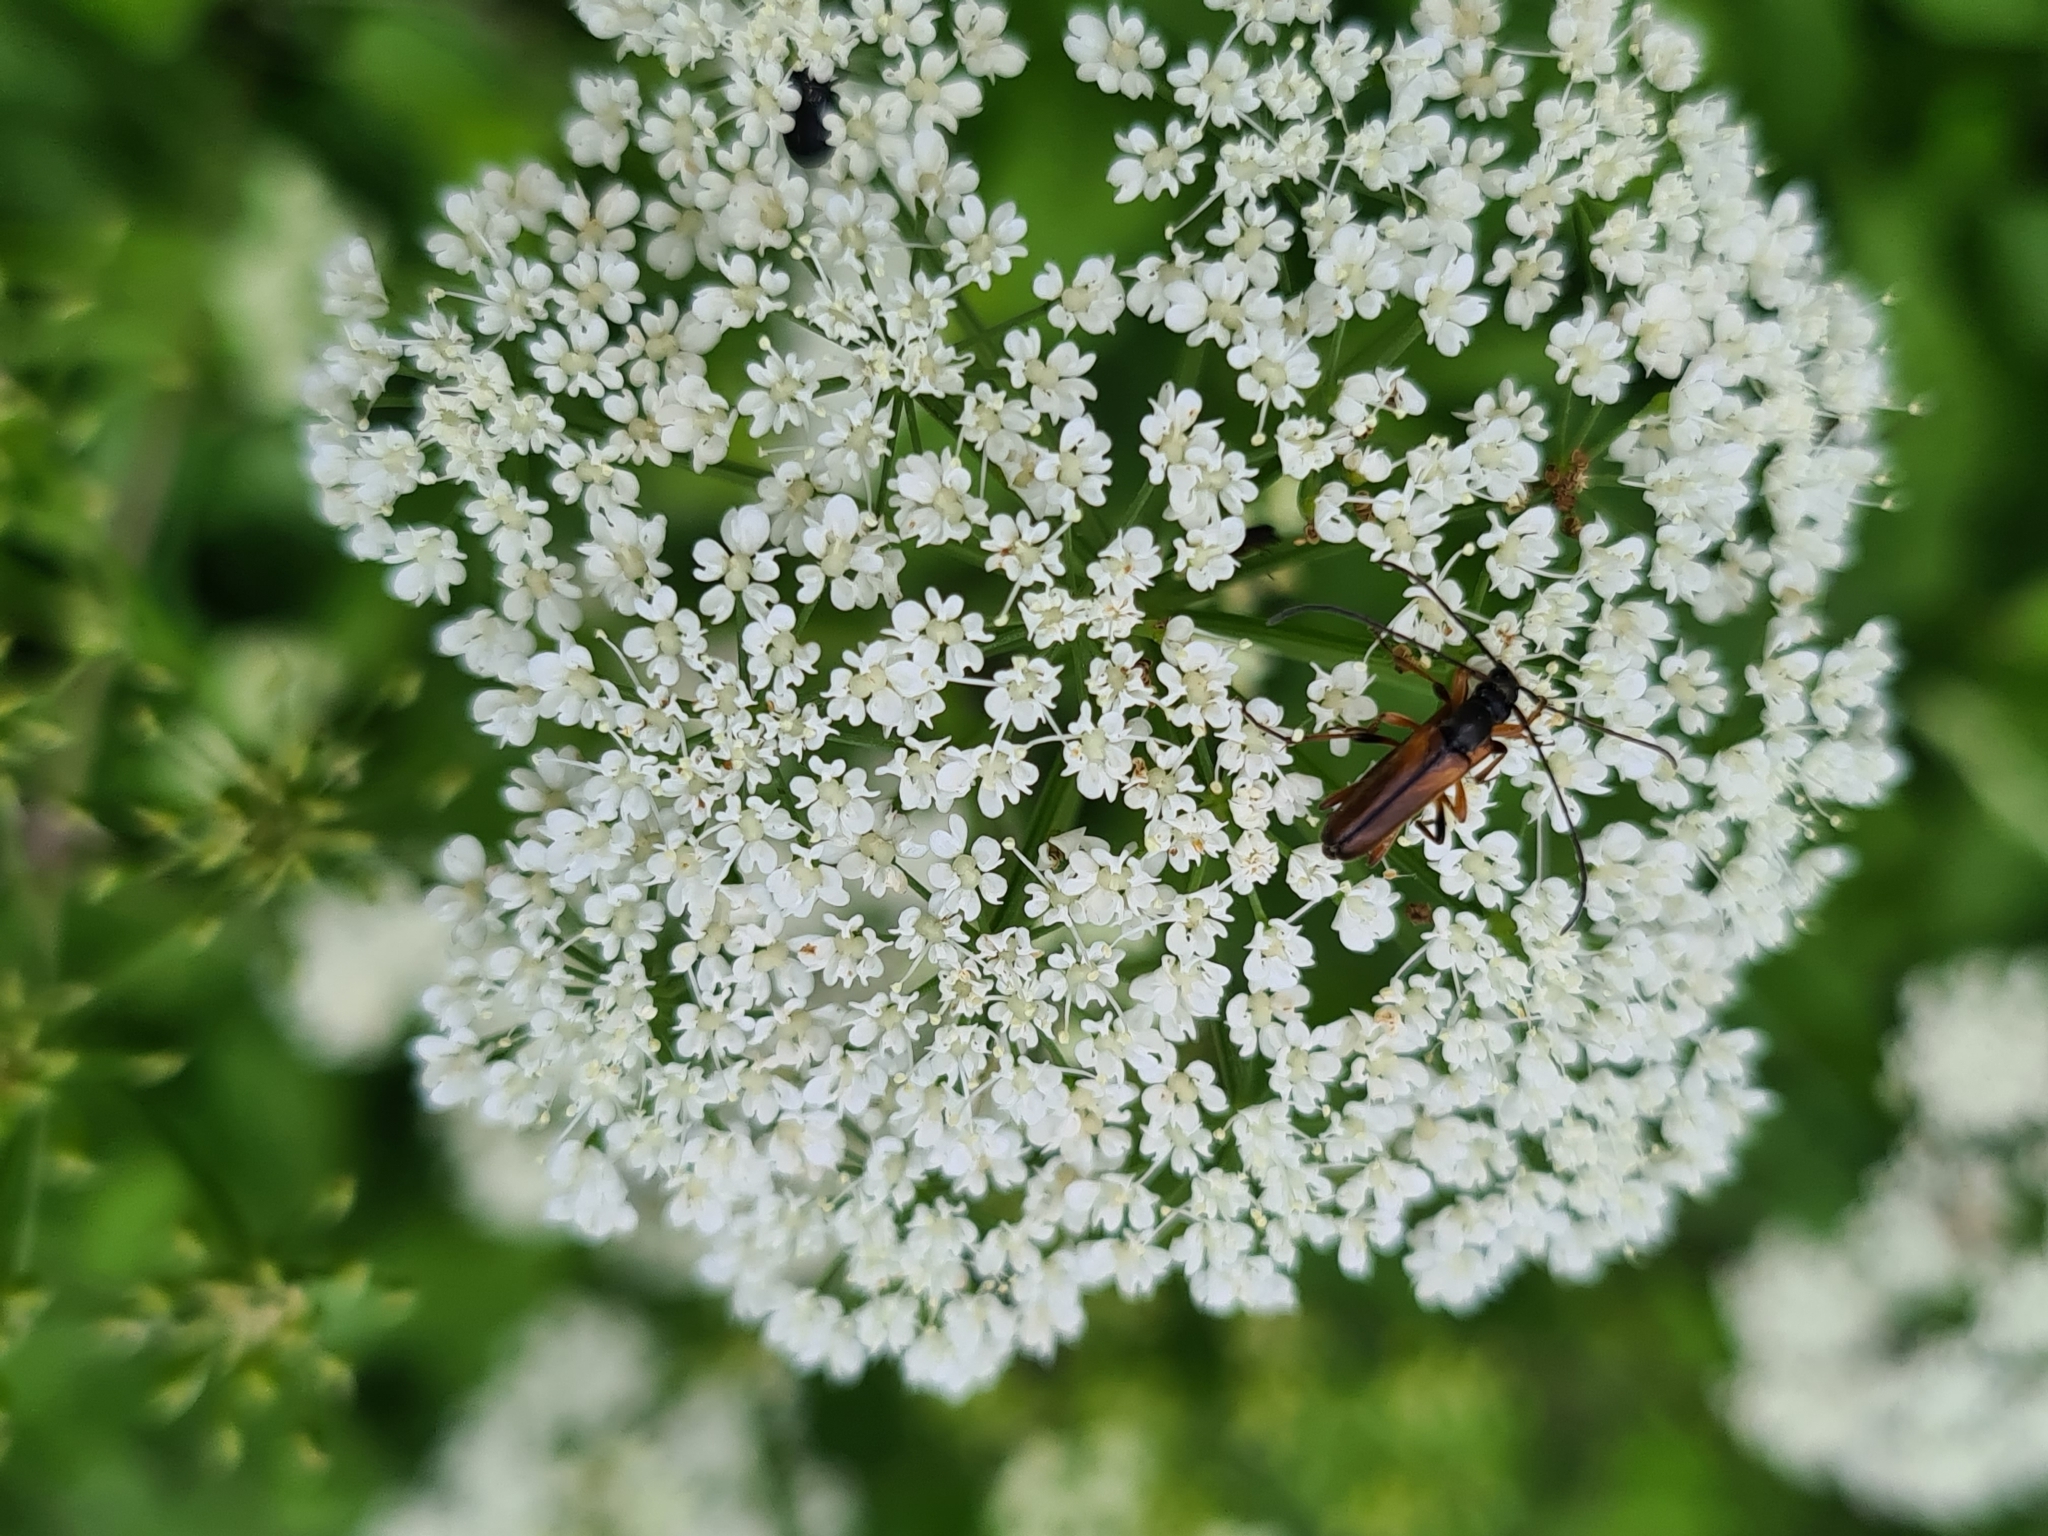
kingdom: Animalia
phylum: Arthropoda
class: Insecta
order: Coleoptera
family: Cerambycidae
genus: Alosterna
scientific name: Alosterna tabacicolor
